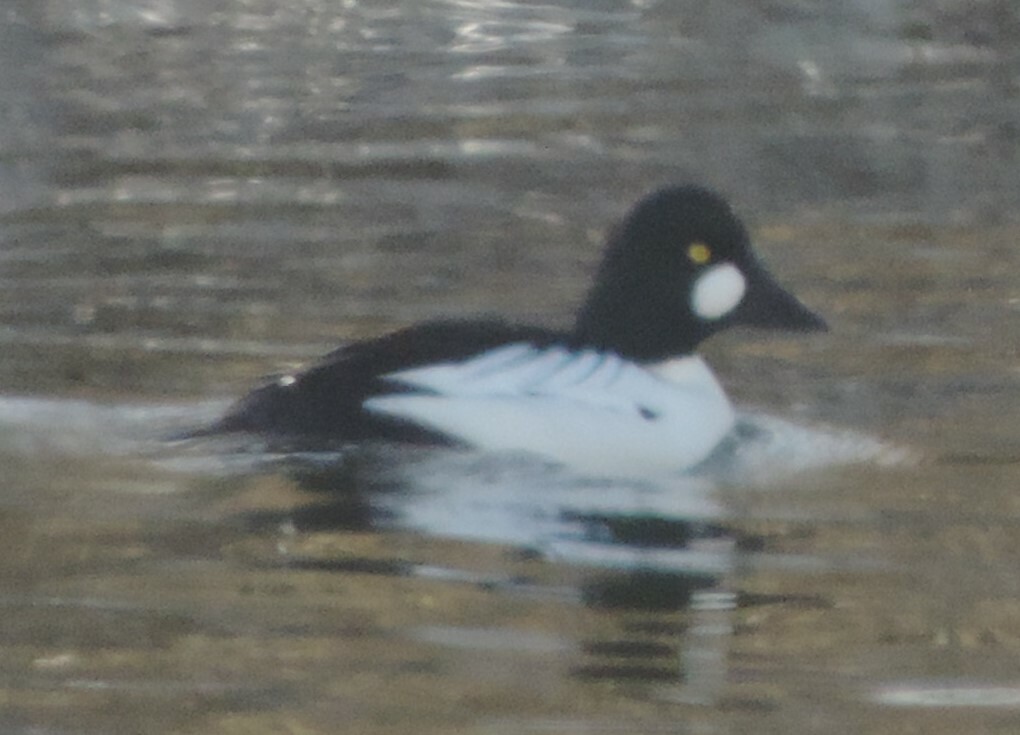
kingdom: Animalia
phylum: Chordata
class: Aves
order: Anseriformes
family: Anatidae
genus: Bucephala
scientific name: Bucephala clangula
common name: Common goldeneye
